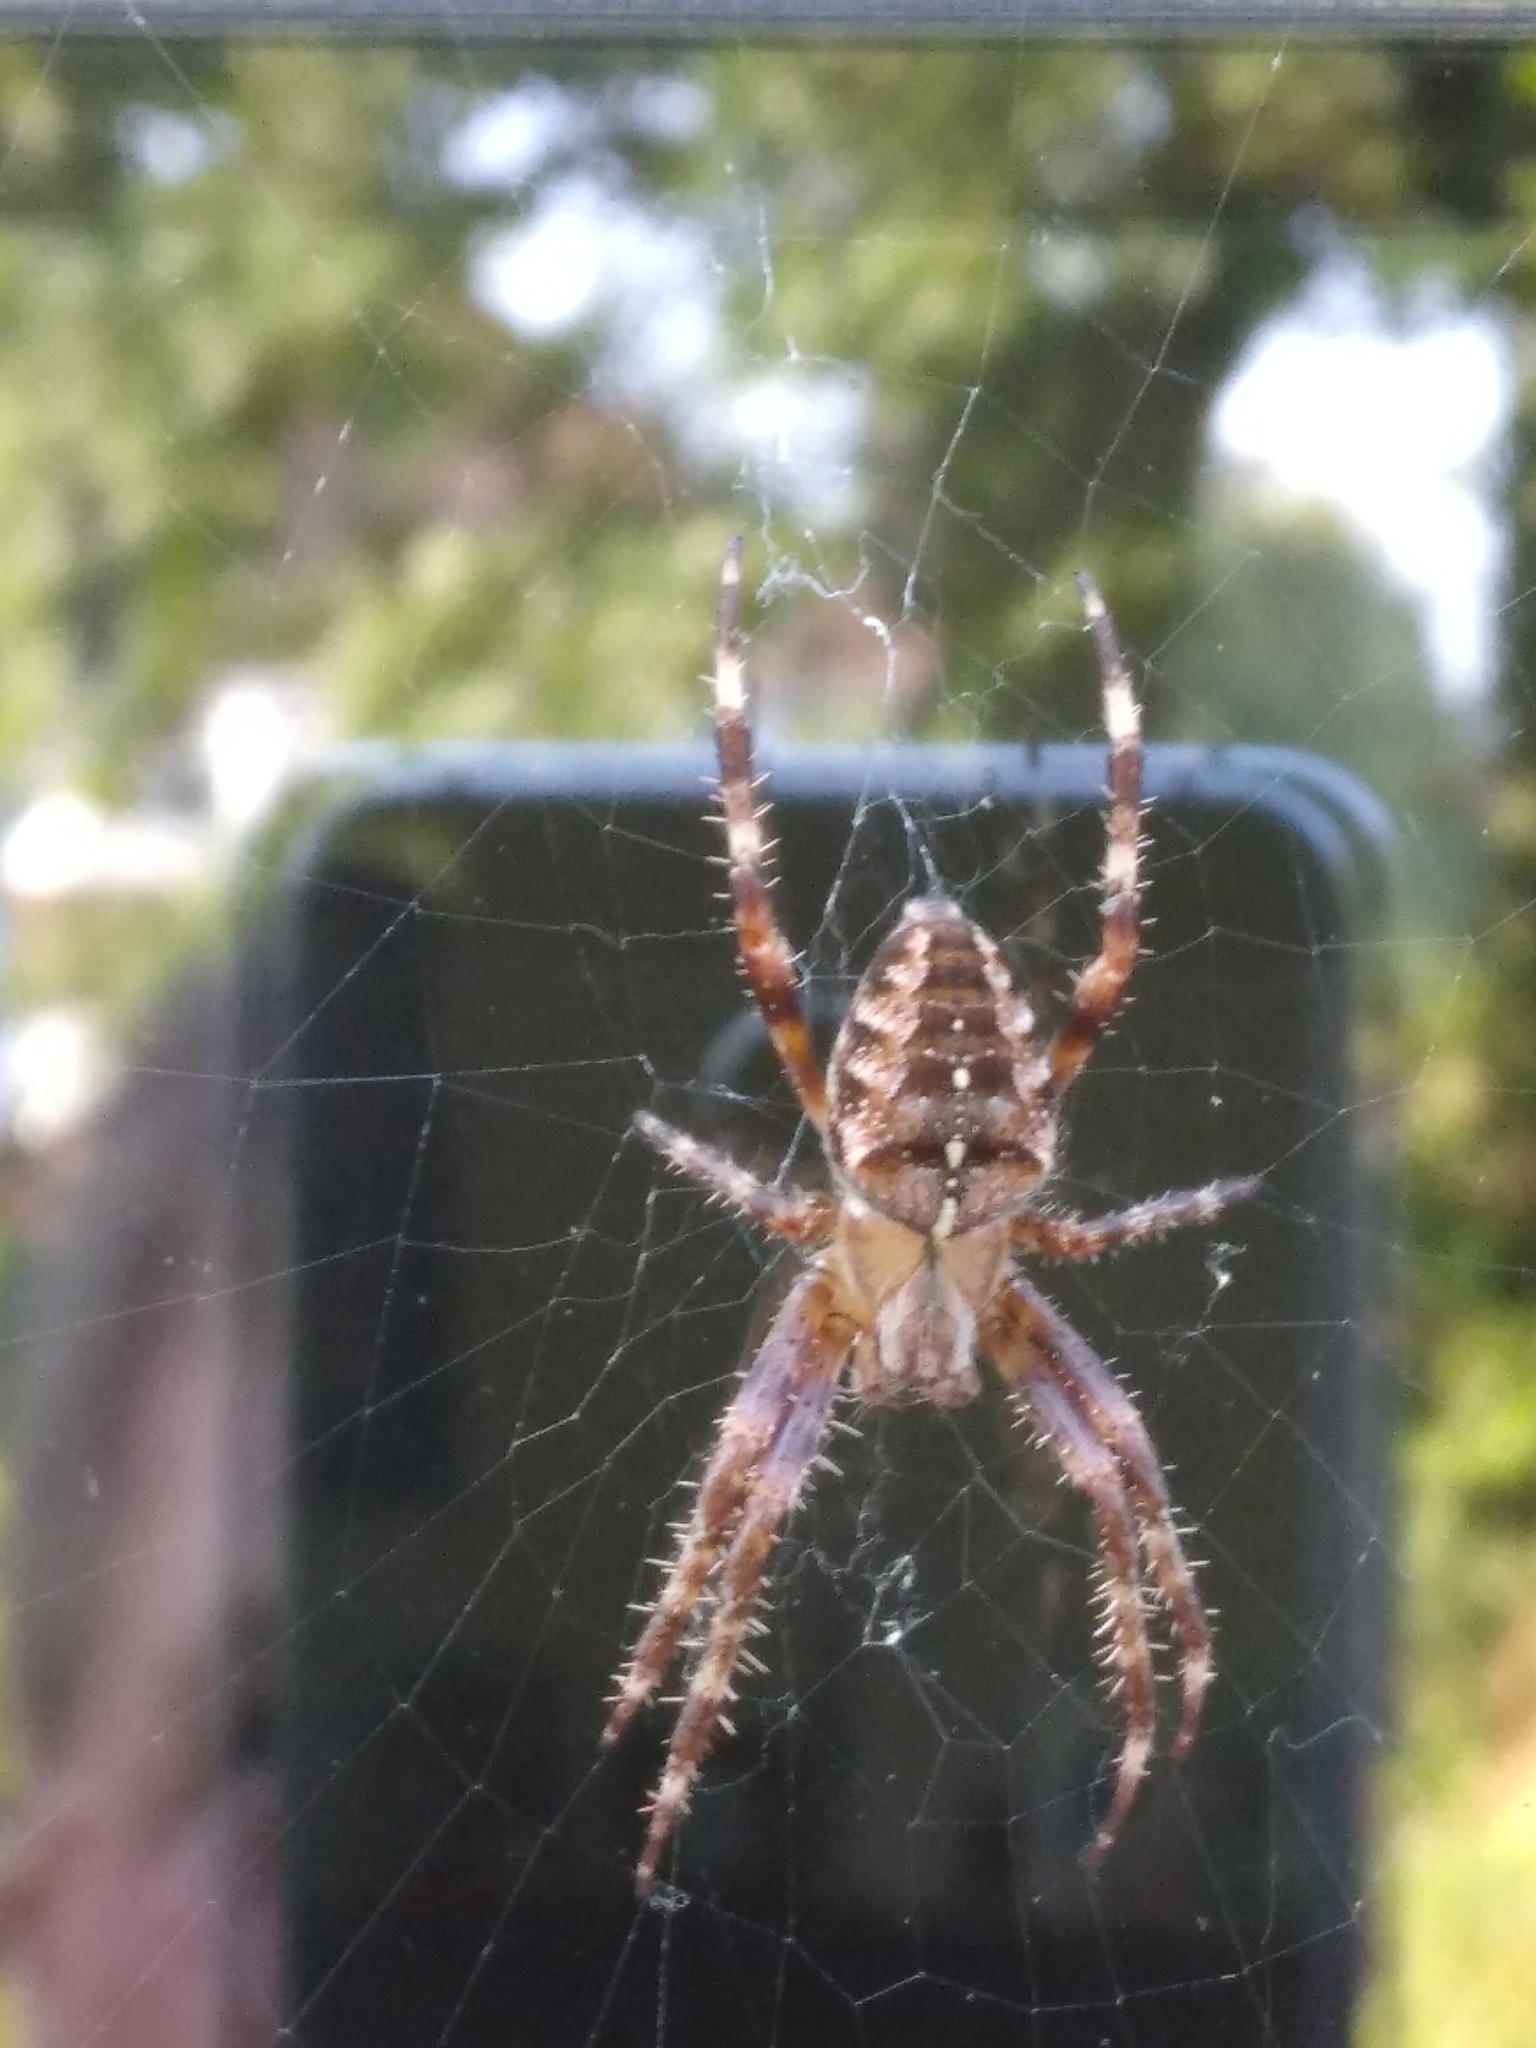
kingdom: Animalia
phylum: Arthropoda
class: Arachnida
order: Araneae
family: Araneidae
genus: Araneus
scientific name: Araneus diadematus
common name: Cross orbweaver
